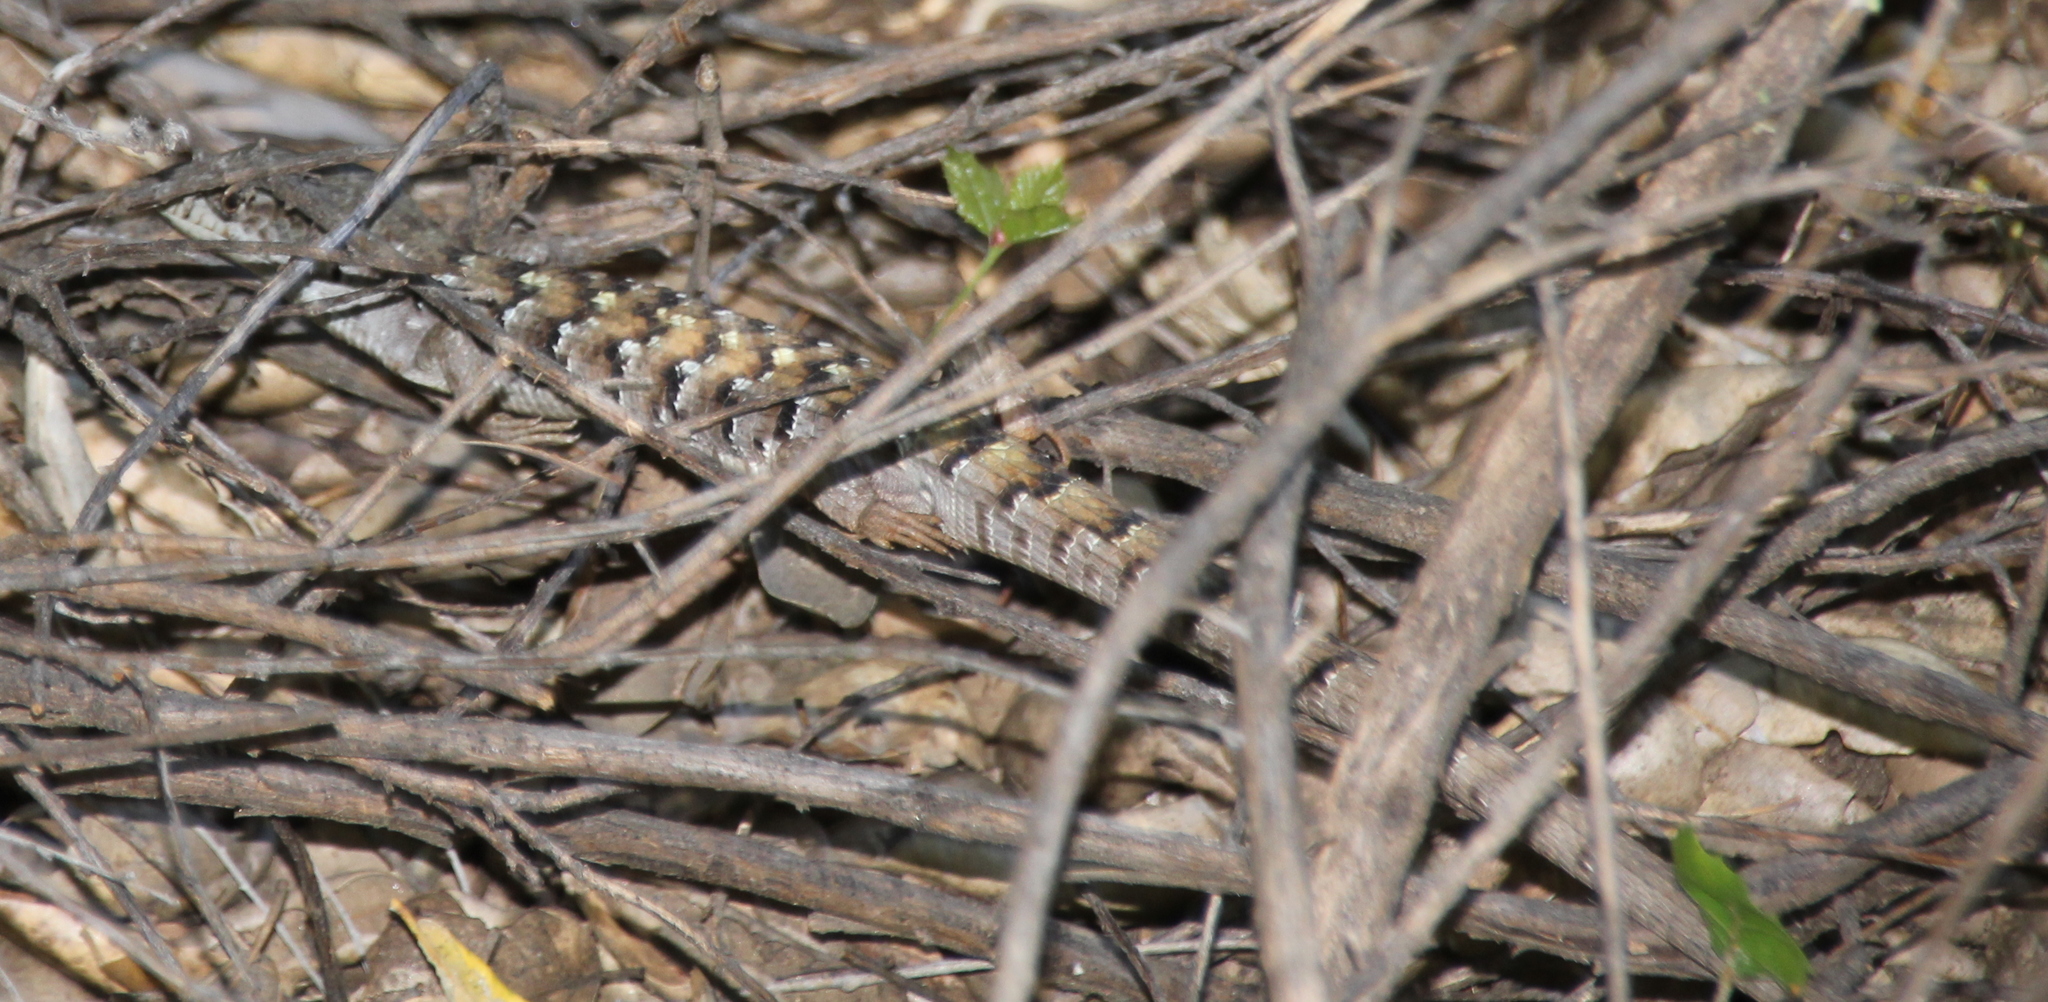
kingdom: Animalia
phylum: Chordata
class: Squamata
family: Anguidae
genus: Elgaria
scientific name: Elgaria multicarinata
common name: Southern alligator lizard
